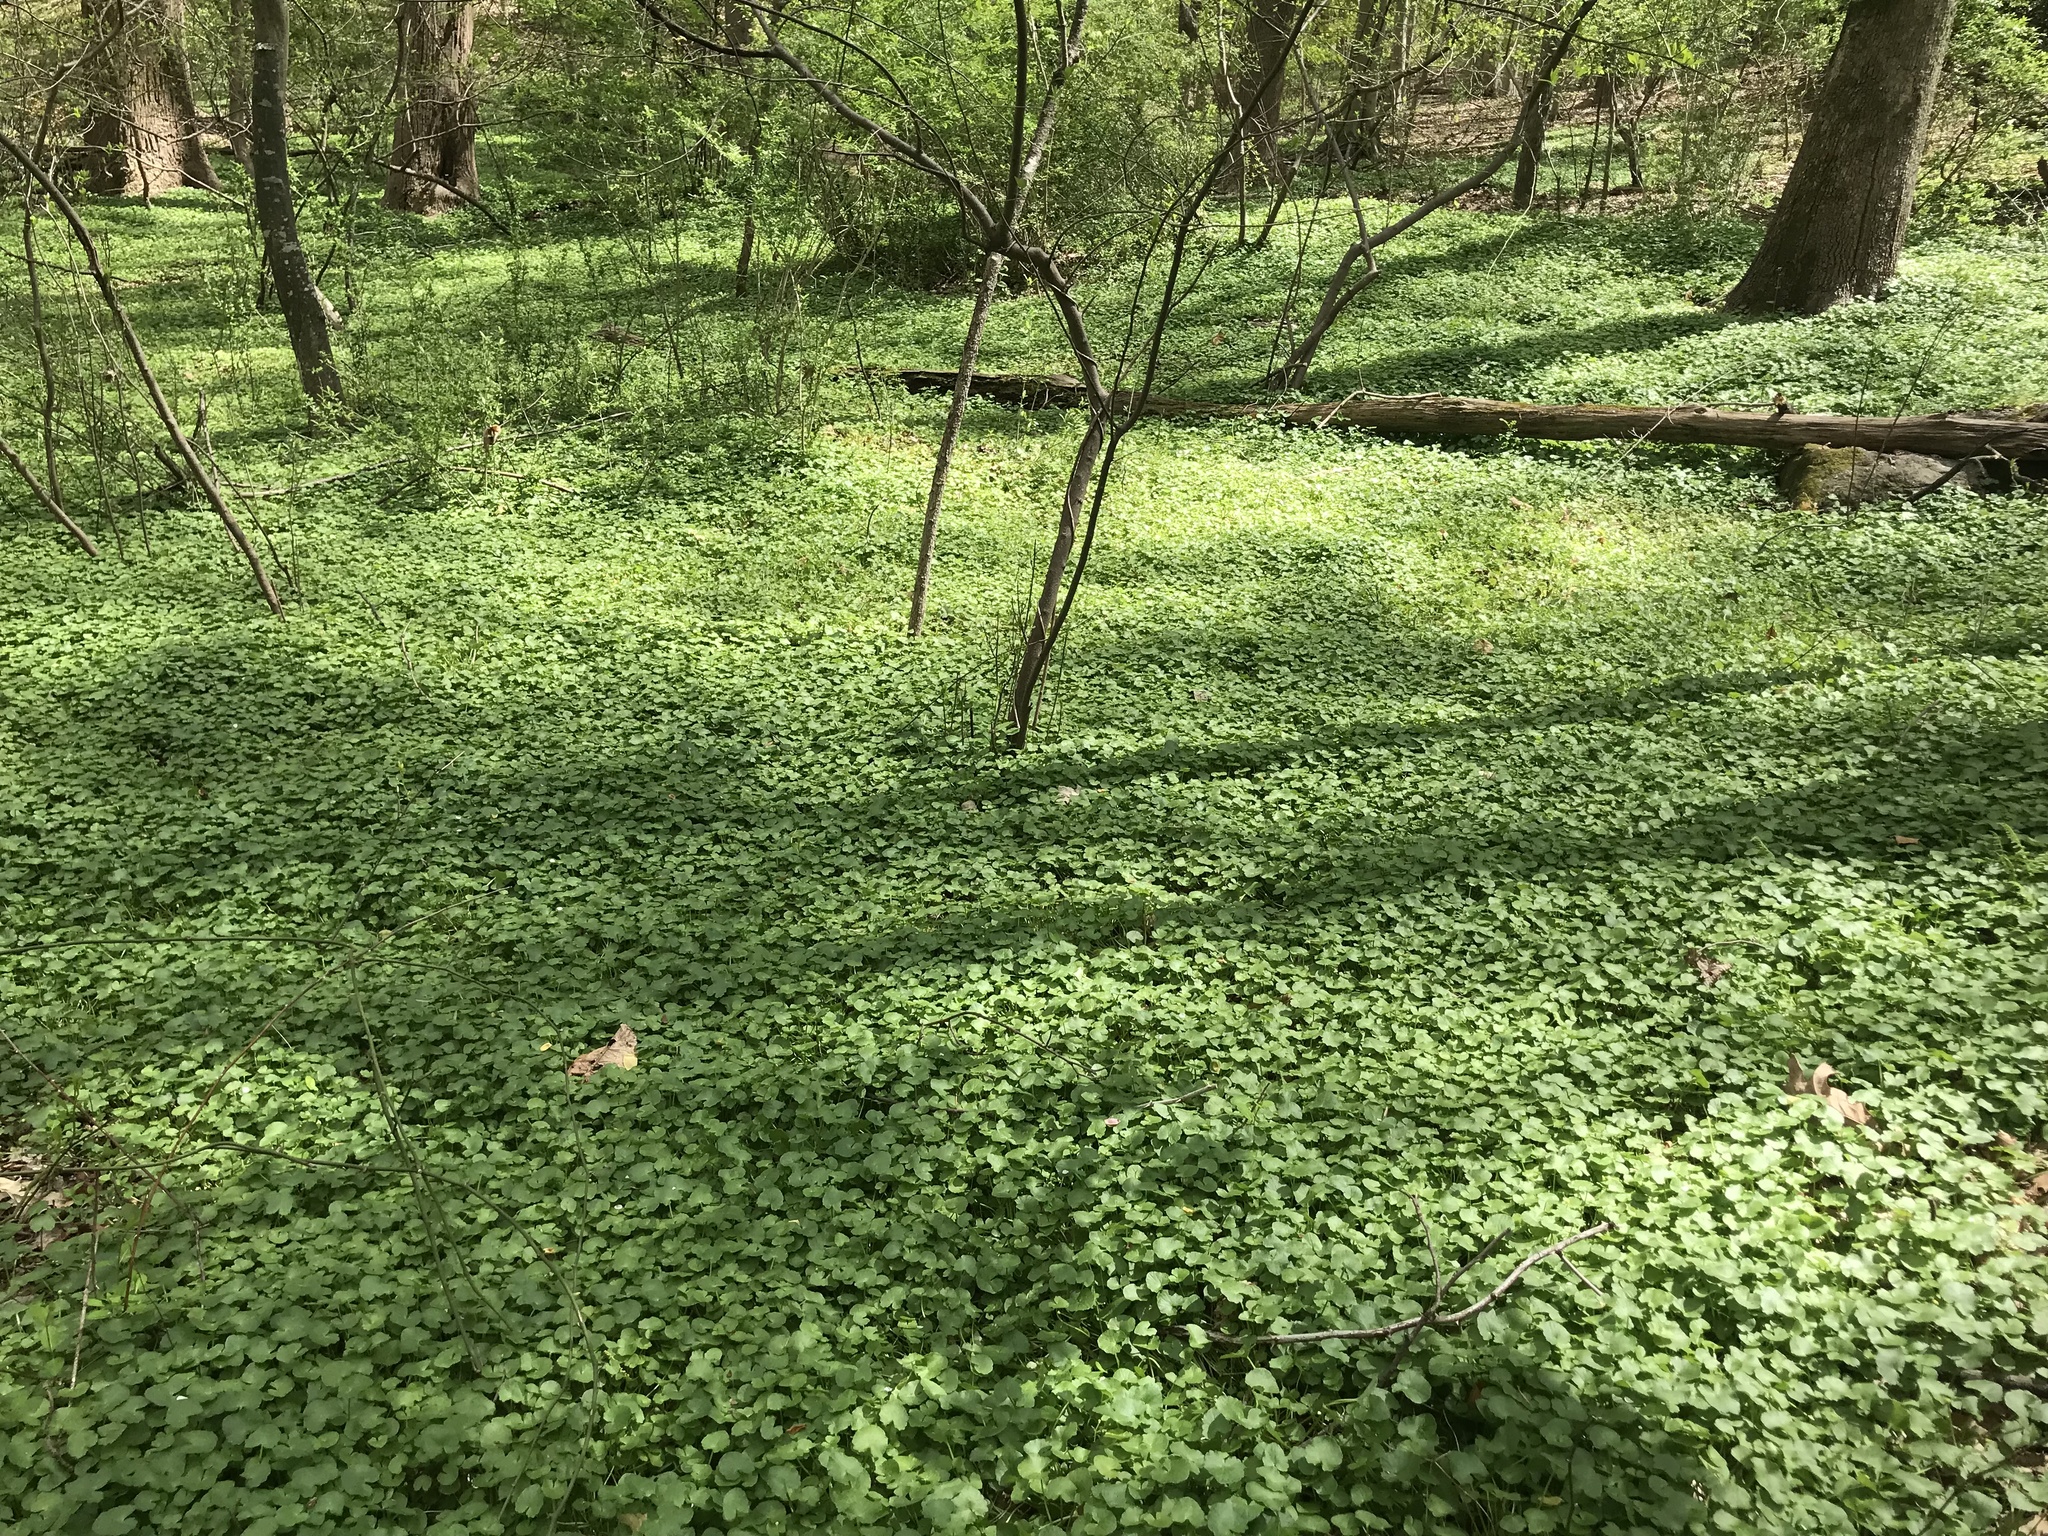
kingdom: Plantae
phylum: Tracheophyta
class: Magnoliopsida
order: Ranunculales
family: Ranunculaceae
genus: Ficaria
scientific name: Ficaria verna
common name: Lesser celandine
